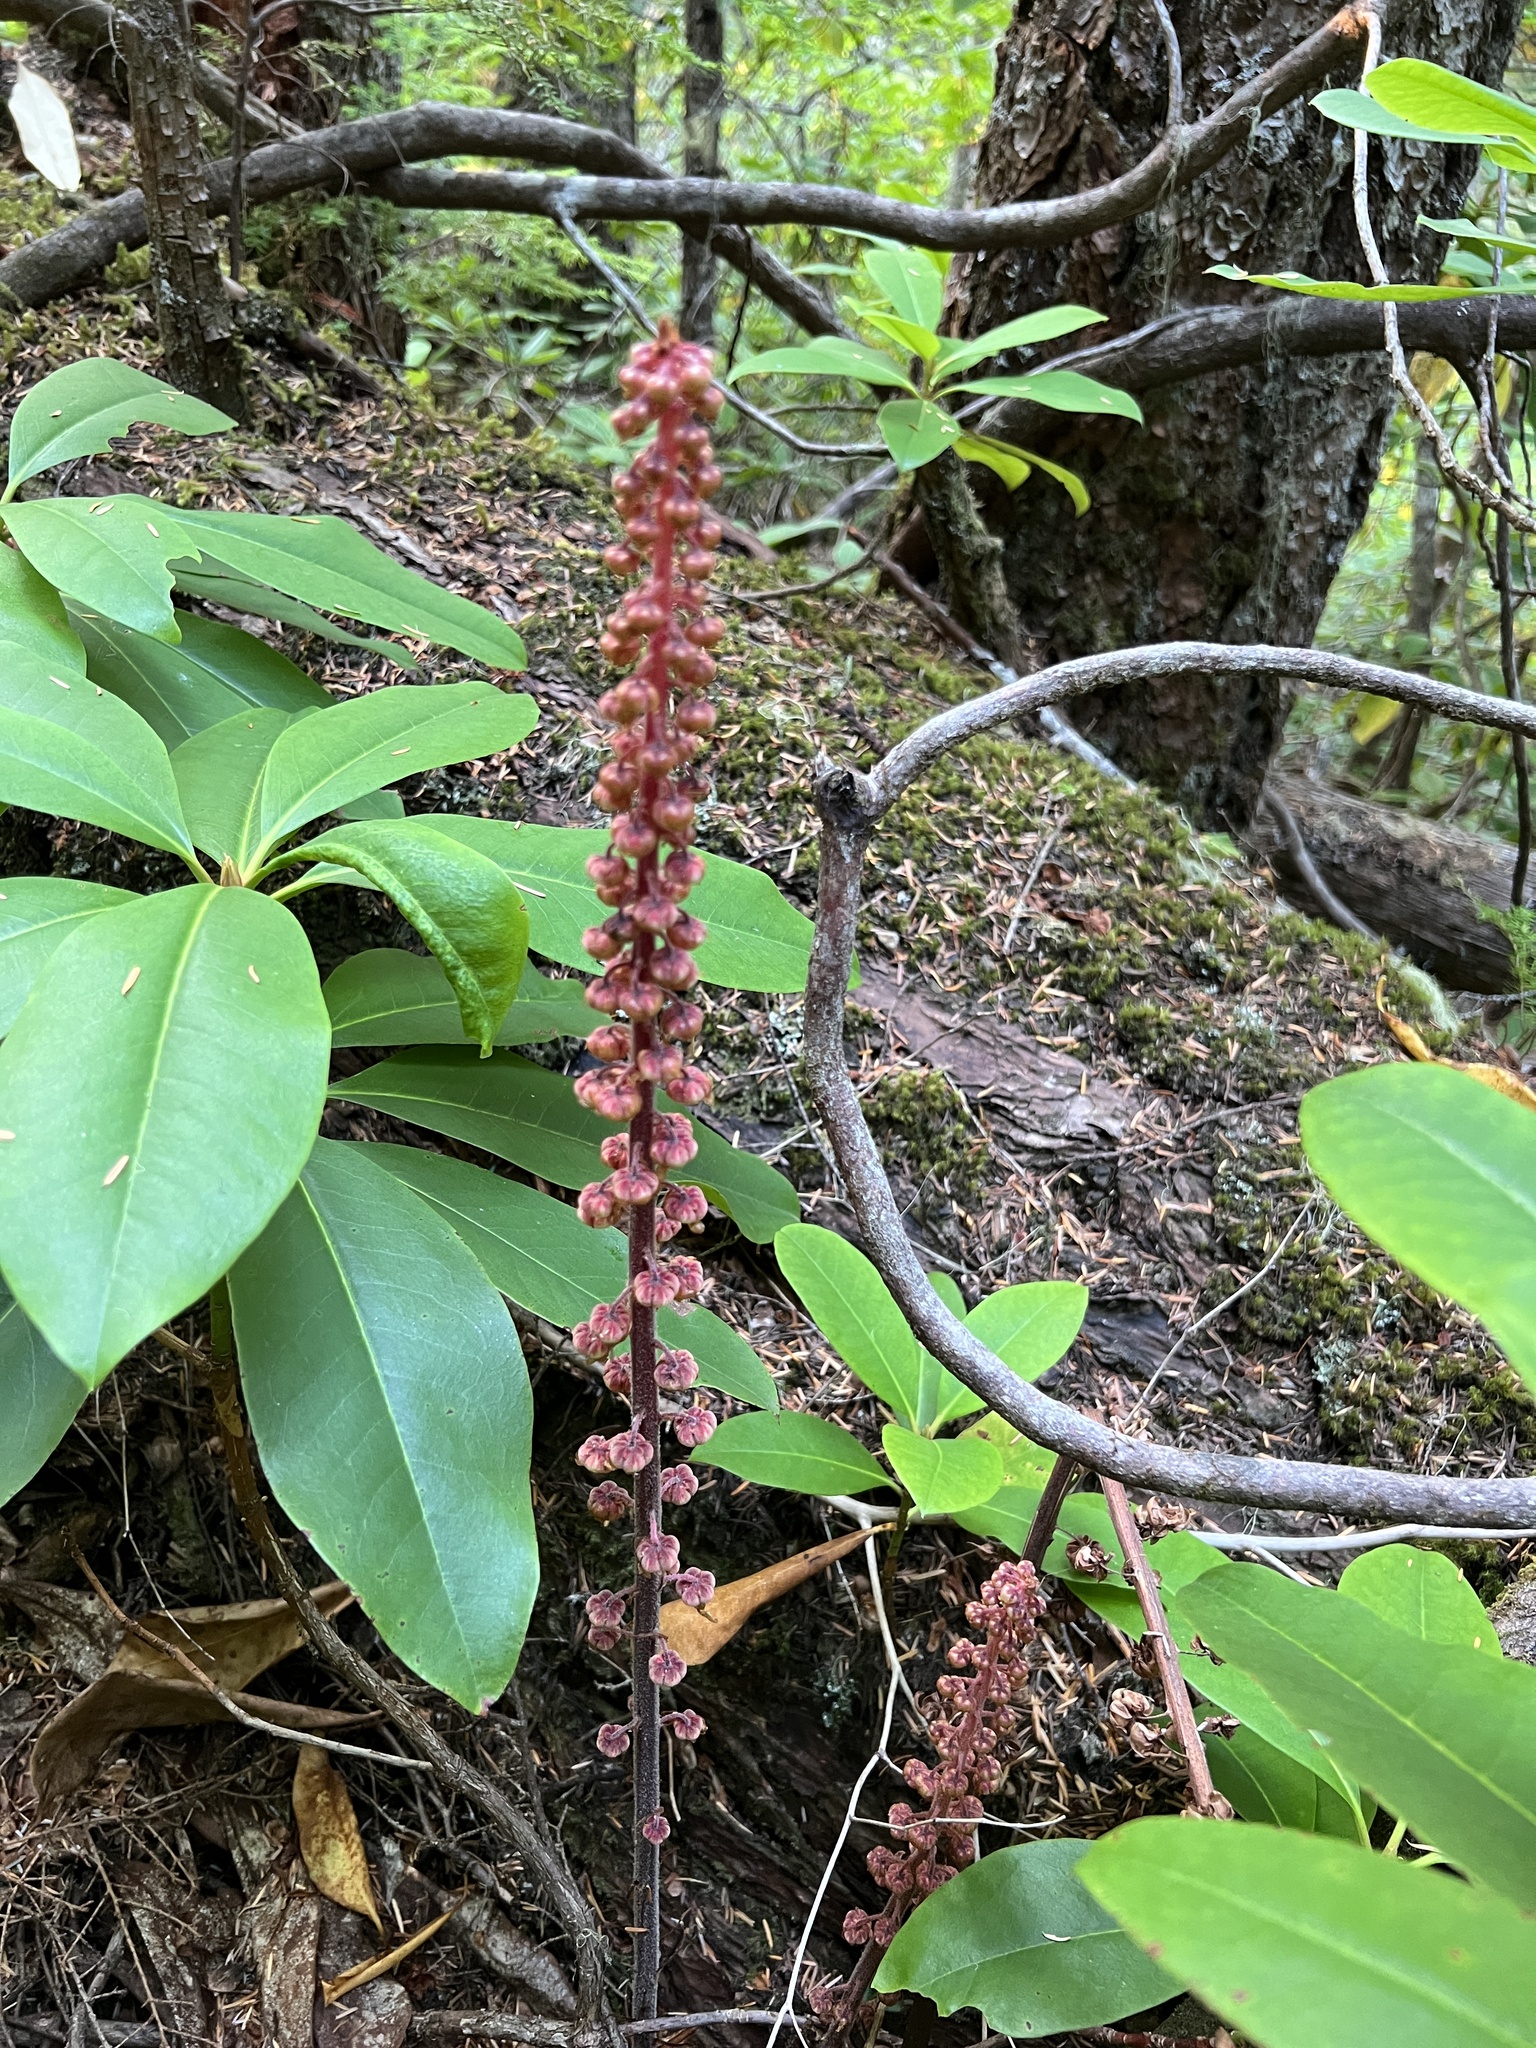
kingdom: Plantae
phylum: Tracheophyta
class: Magnoliopsida
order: Ericales
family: Ericaceae
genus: Pterospora
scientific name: Pterospora andromedea
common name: Giant bird's-nest
